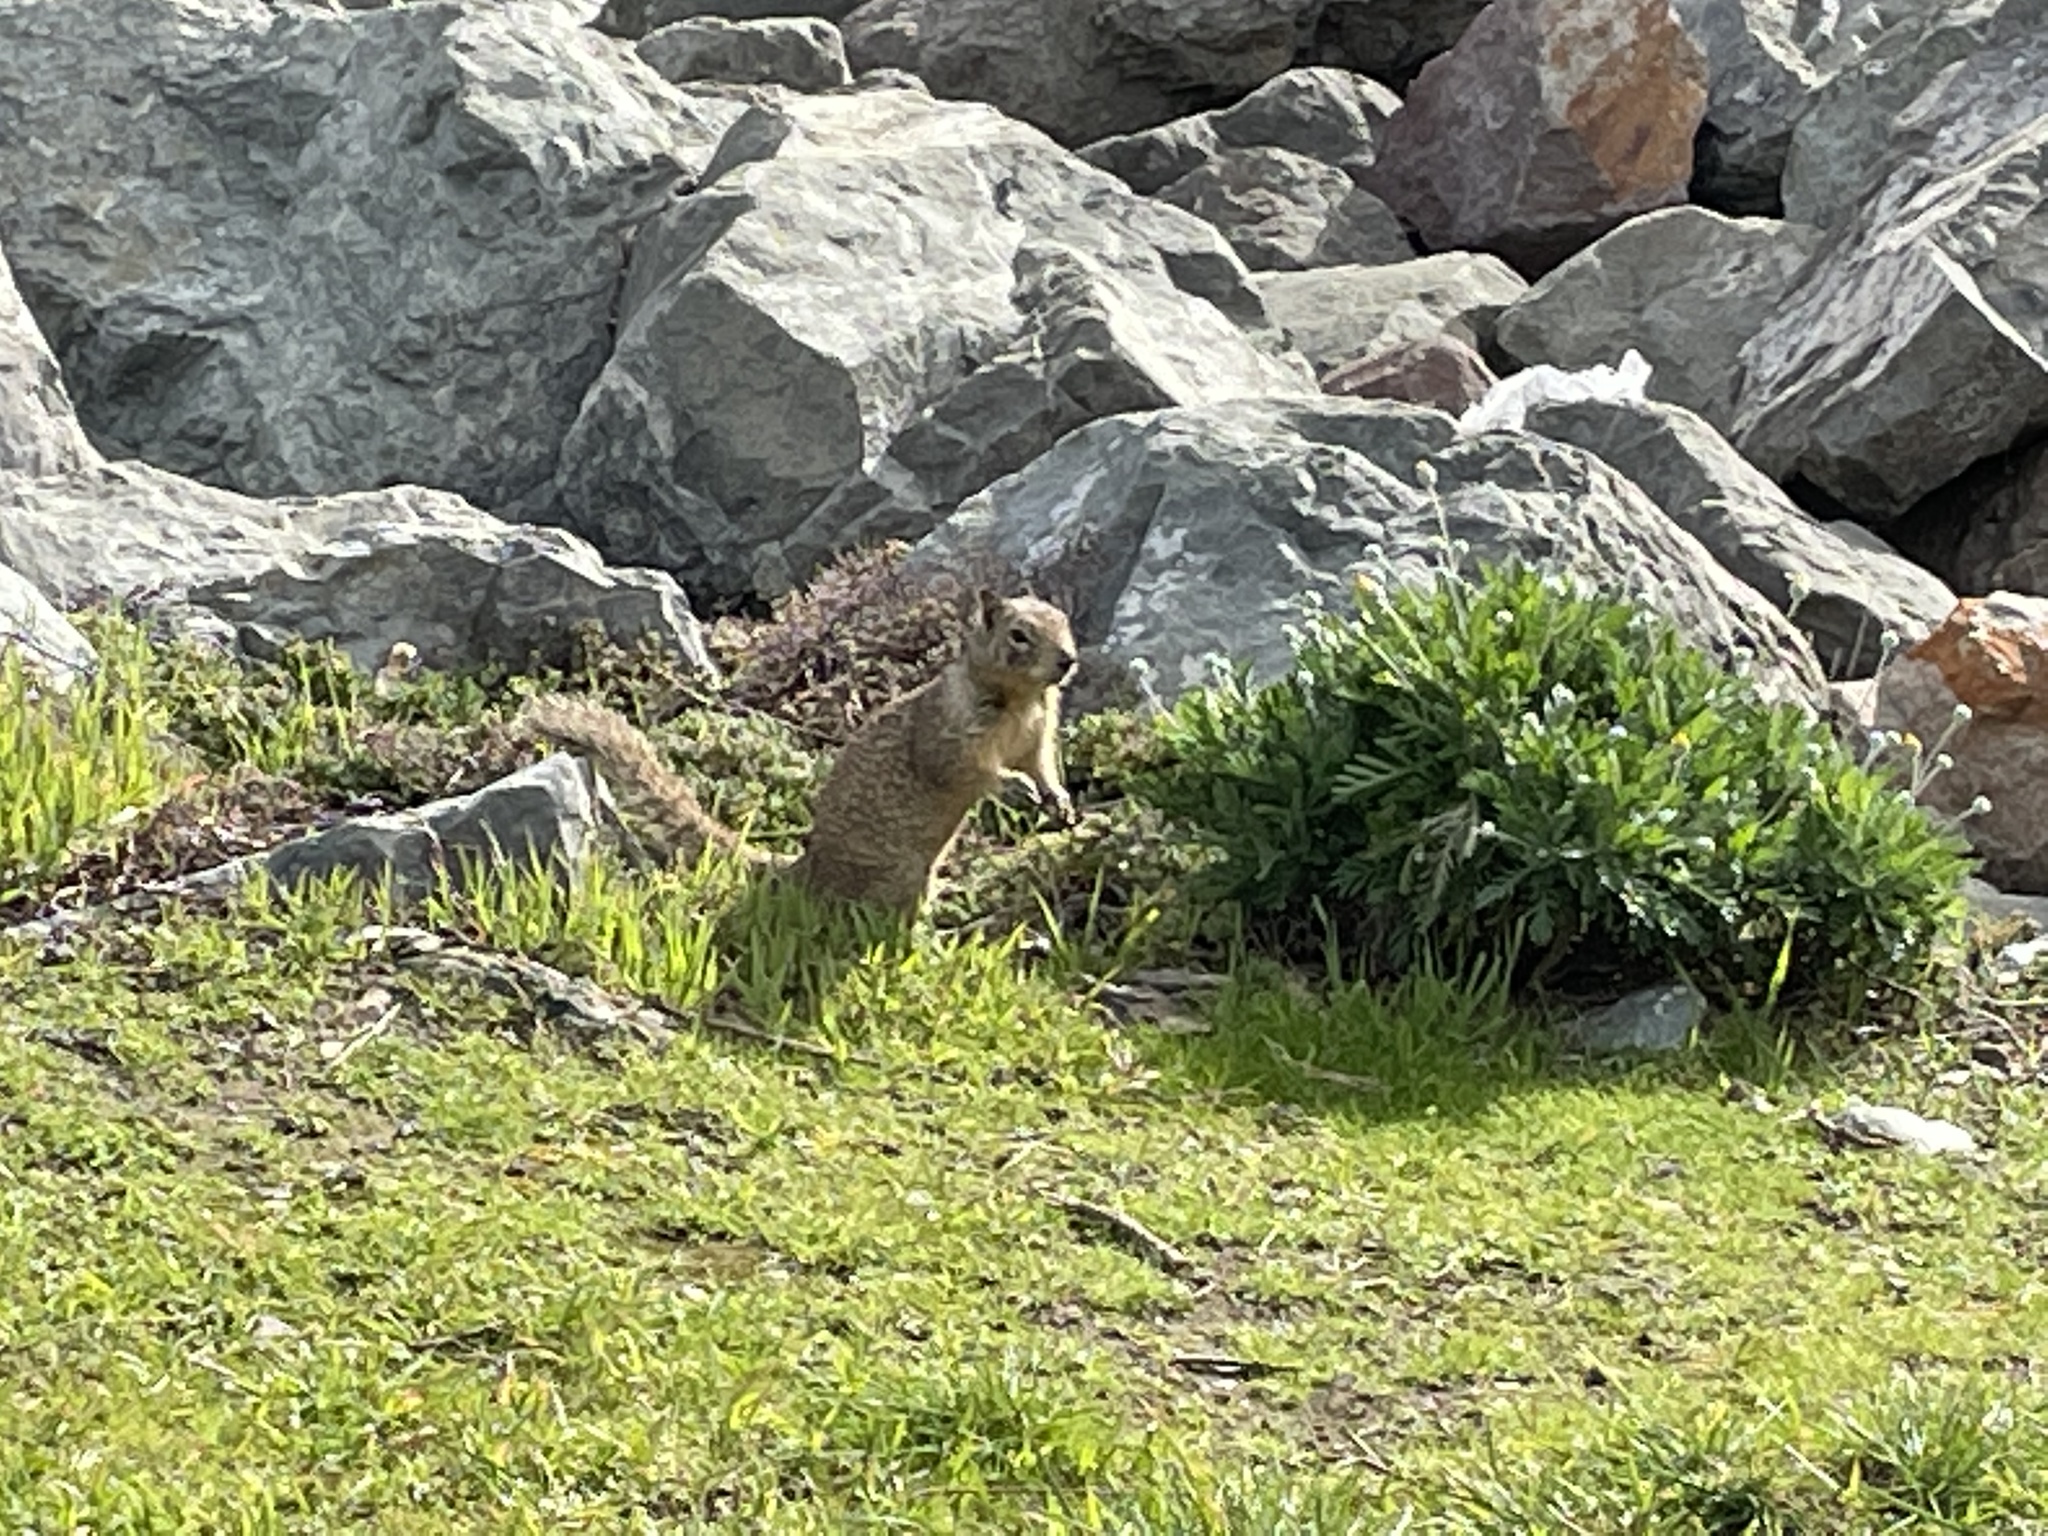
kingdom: Animalia
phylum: Chordata
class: Mammalia
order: Rodentia
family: Sciuridae
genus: Otospermophilus
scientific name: Otospermophilus beecheyi
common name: California ground squirrel
